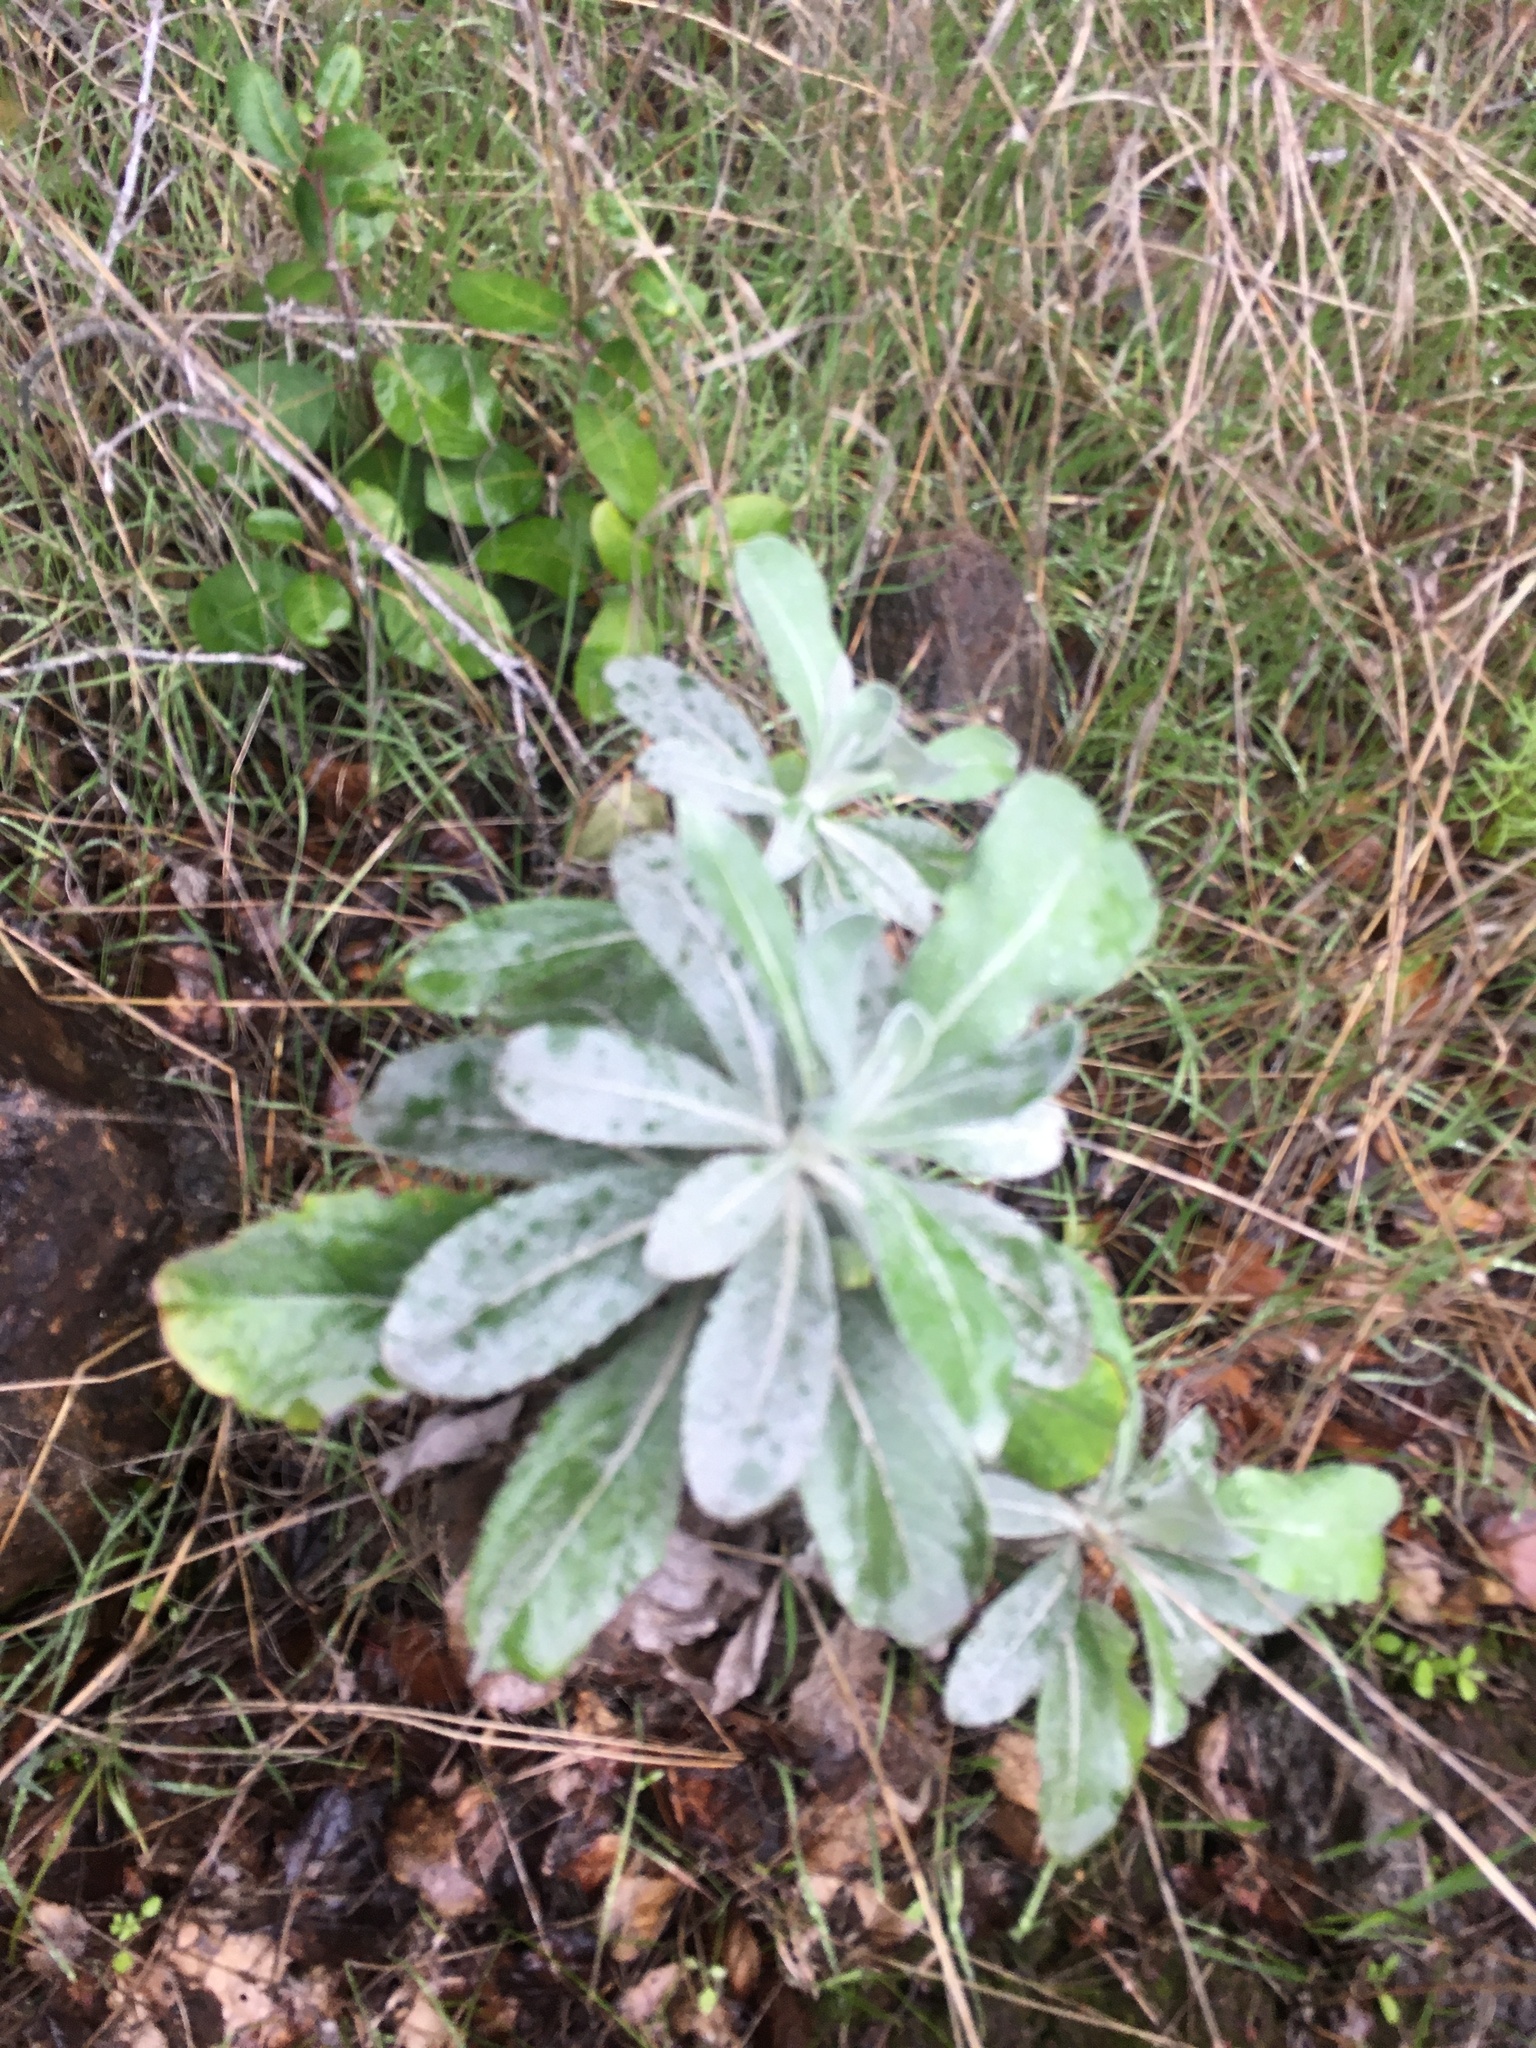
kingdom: Plantae
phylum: Tracheophyta
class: Magnoliopsida
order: Asterales
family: Asteraceae
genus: Hazardia
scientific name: Hazardia detonsa
